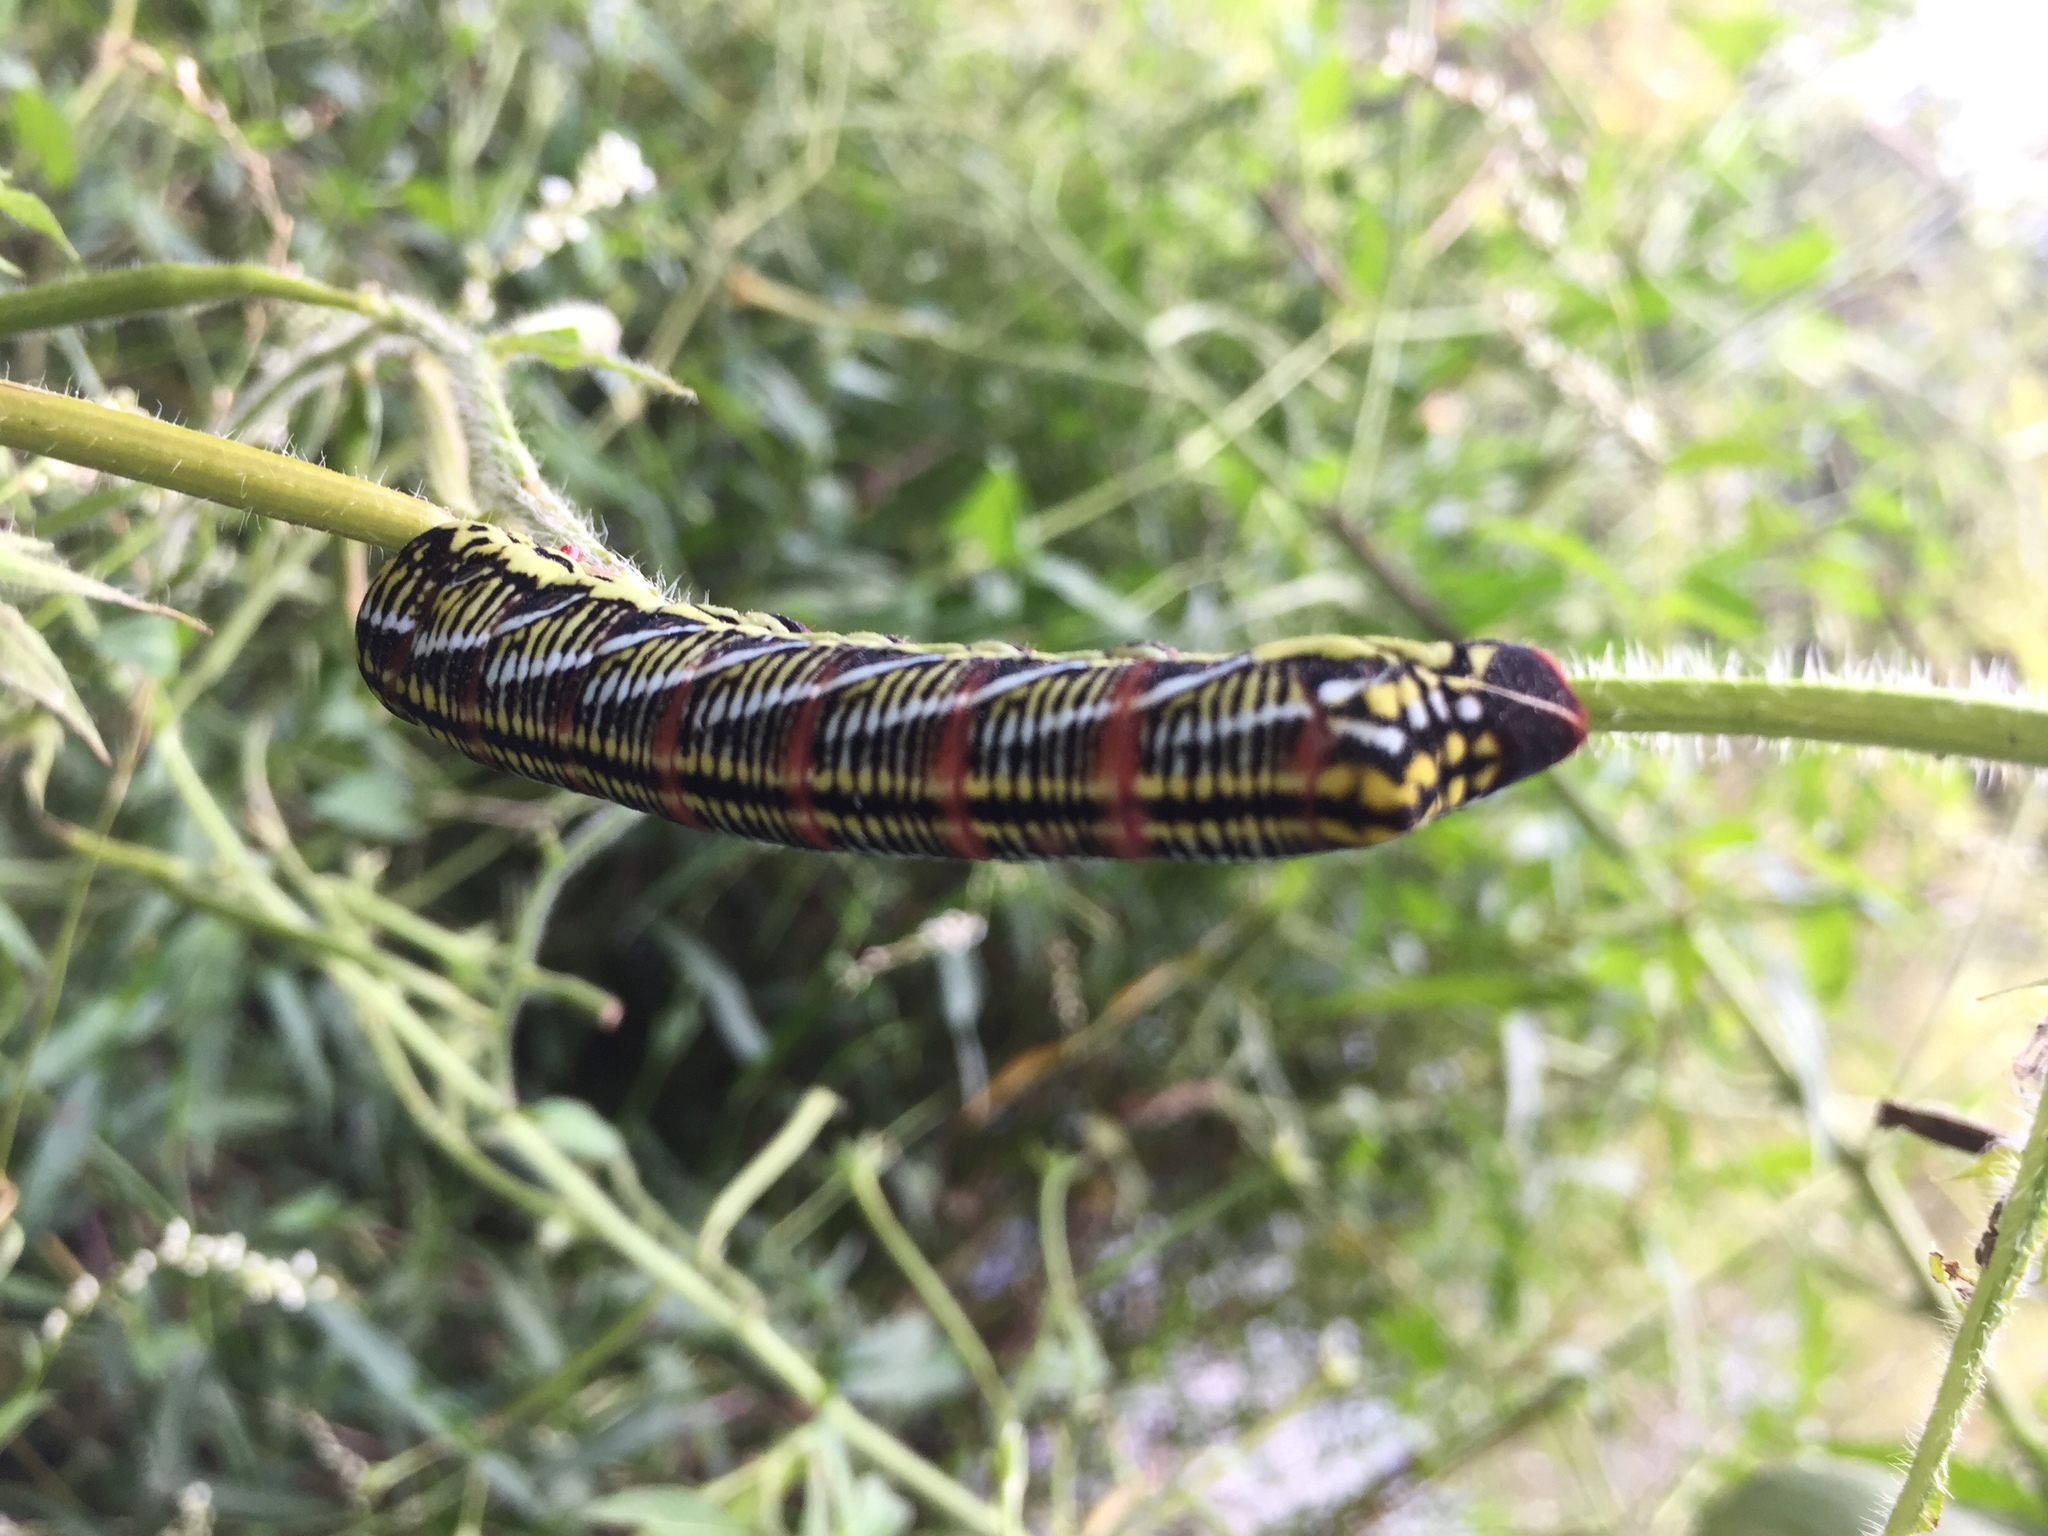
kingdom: Animalia
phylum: Arthropoda
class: Insecta
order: Lepidoptera
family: Sphingidae
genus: Eumorpha
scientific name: Eumorpha fasciatus
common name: Banded sphinx
